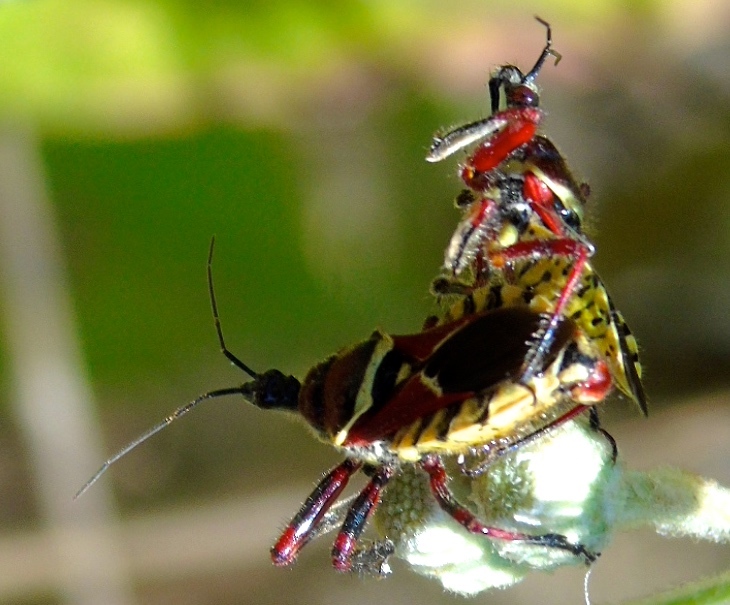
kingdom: Animalia
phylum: Arthropoda
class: Insecta
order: Hemiptera
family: Reduviidae
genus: Apiomerus
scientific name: Apiomerus flaviventris
